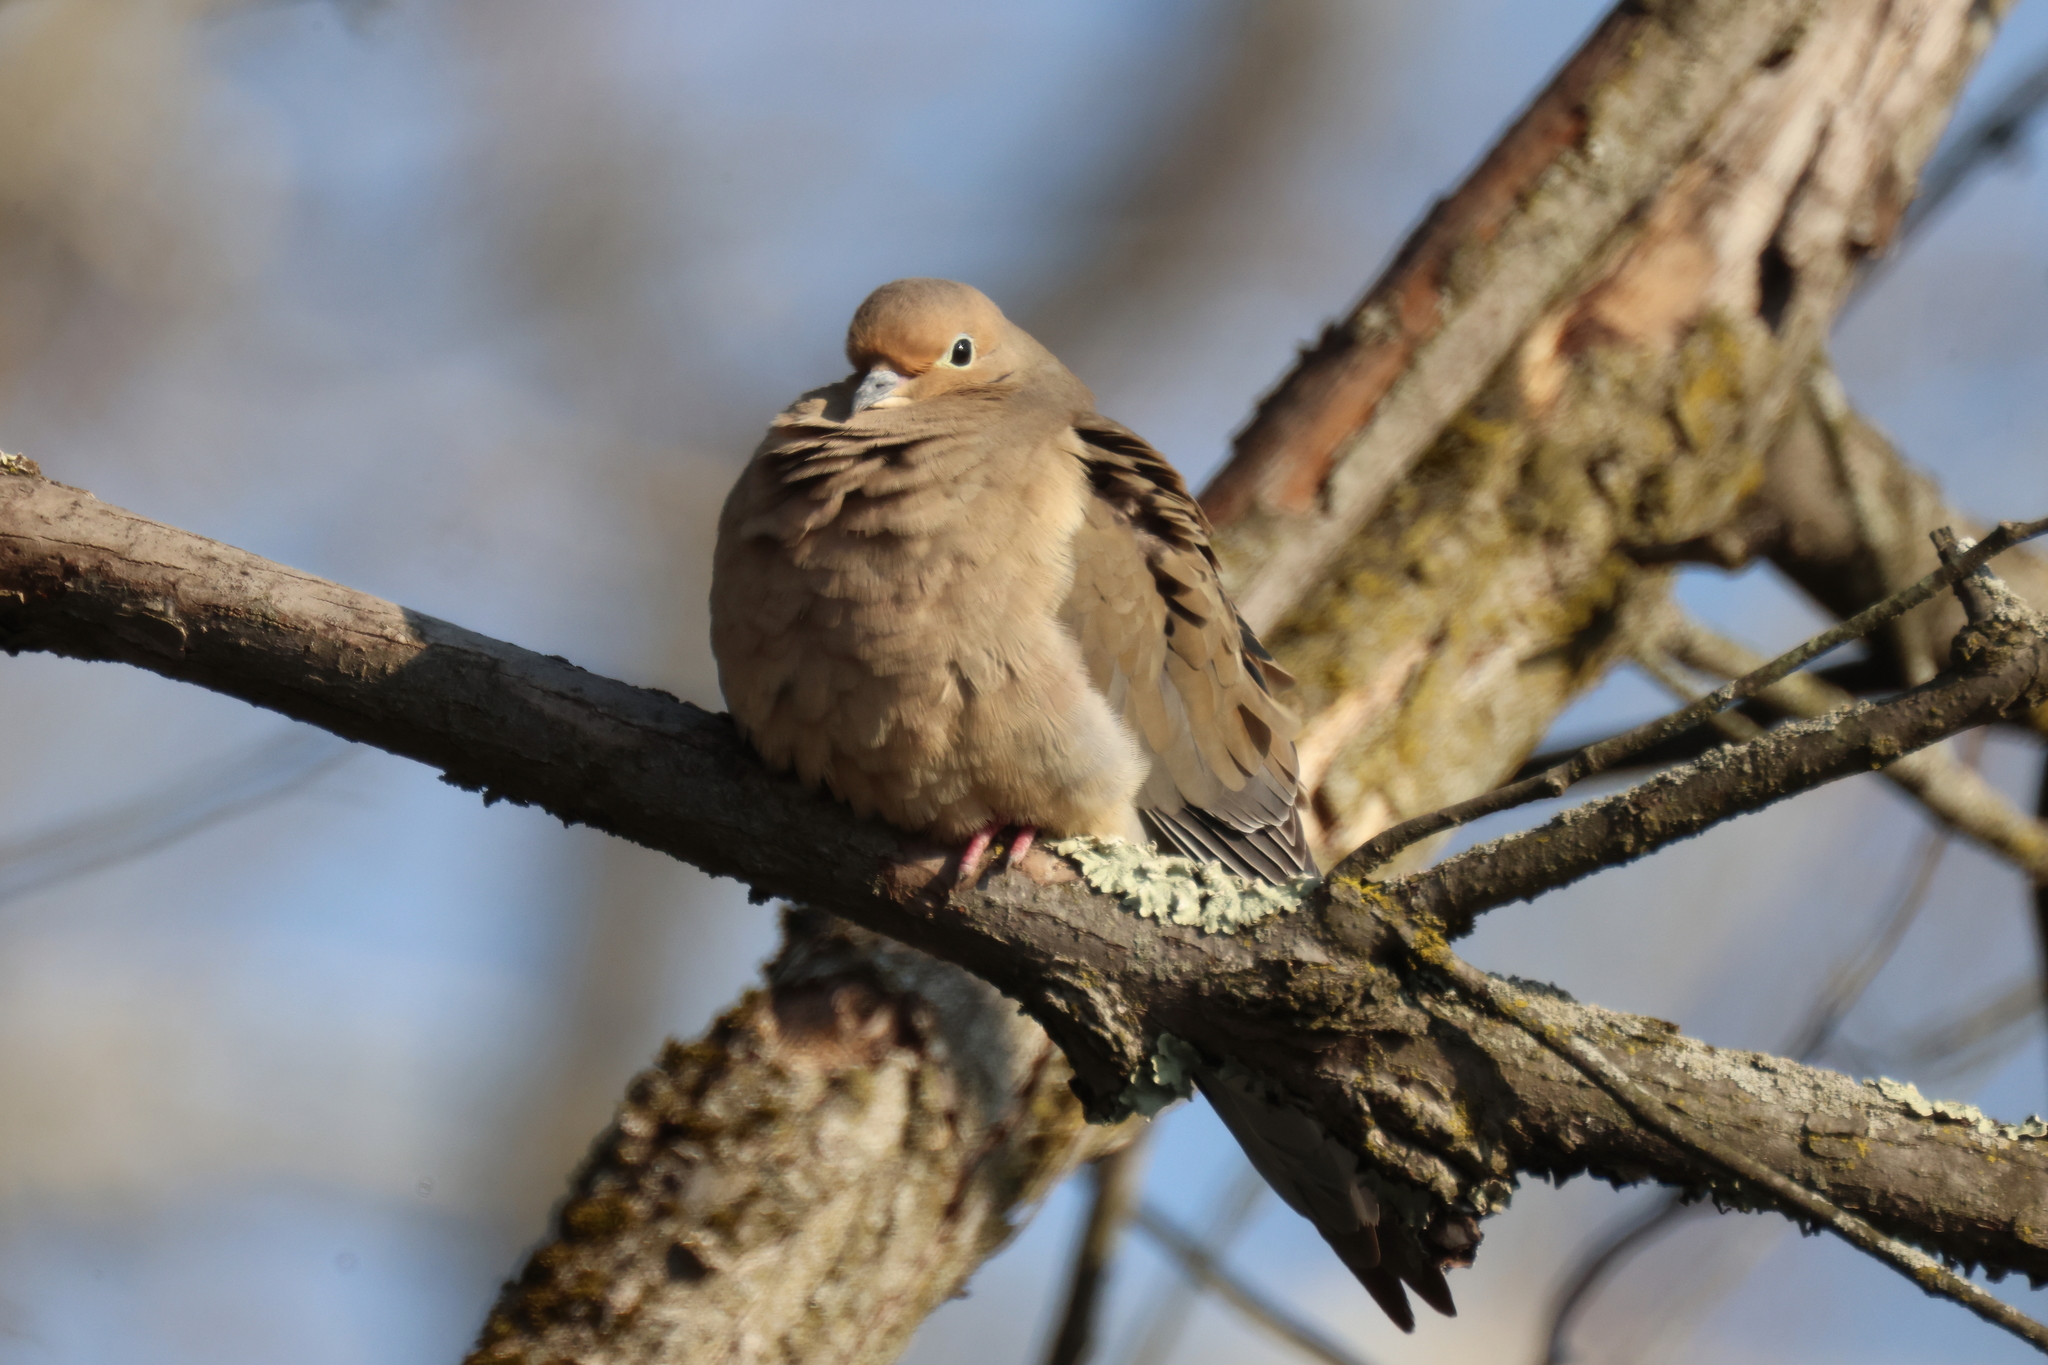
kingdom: Animalia
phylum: Chordata
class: Aves
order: Columbiformes
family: Columbidae
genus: Zenaida
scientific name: Zenaida macroura
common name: Mourning dove
